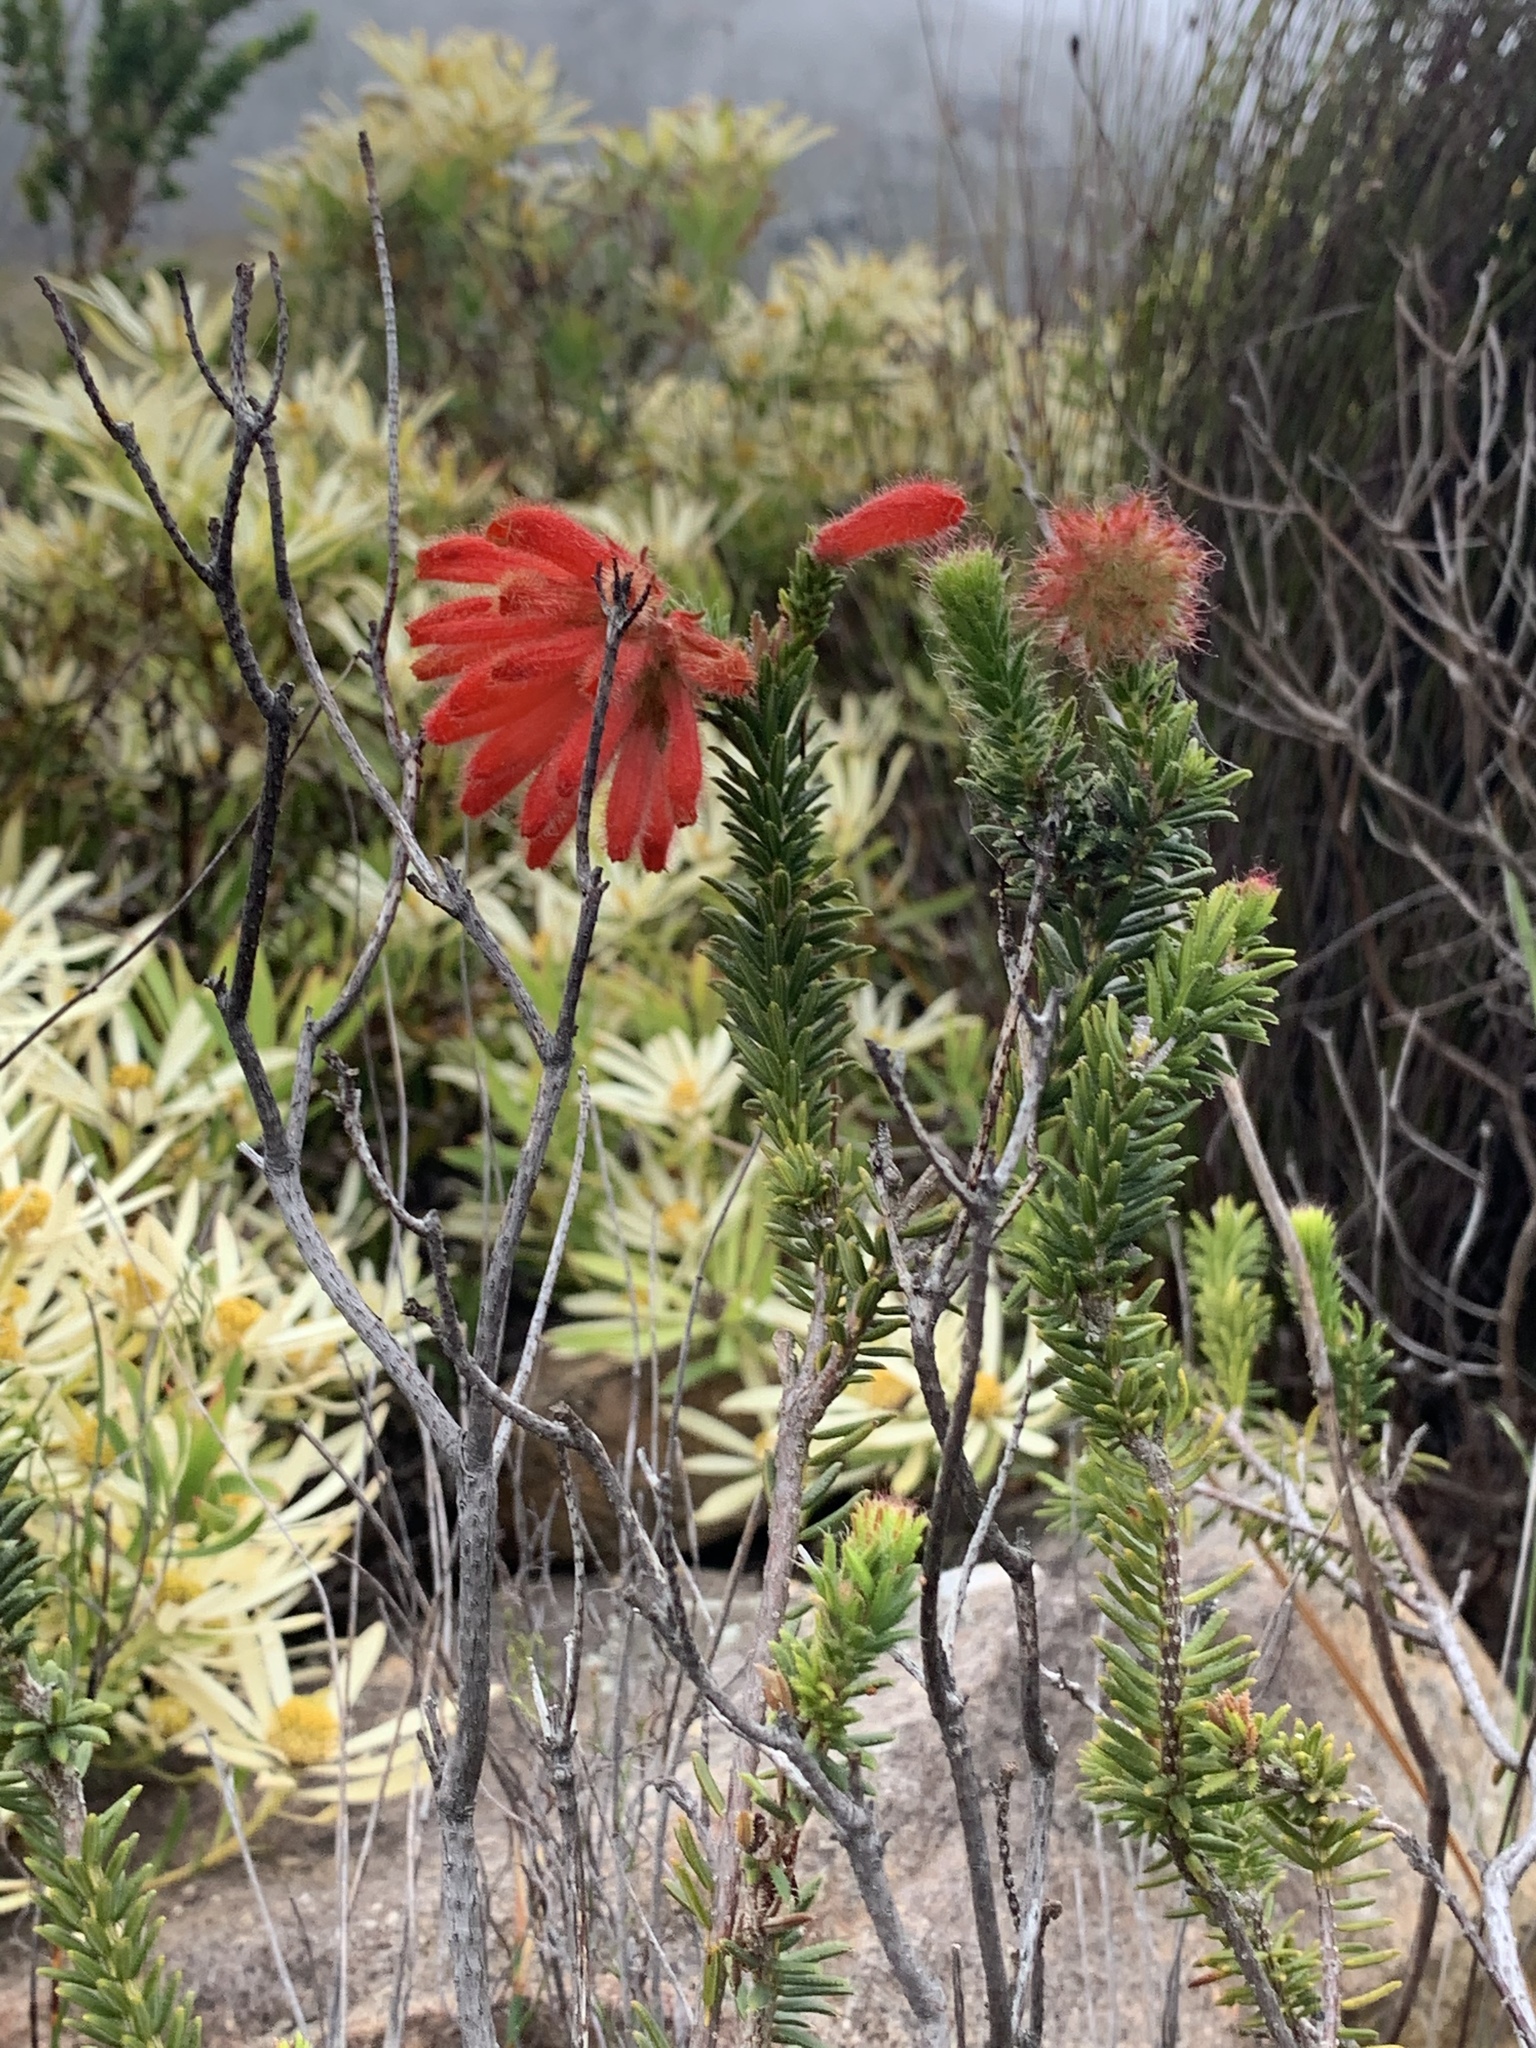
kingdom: Plantae
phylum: Tracheophyta
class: Magnoliopsida
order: Ericales
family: Ericaceae
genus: Erica
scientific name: Erica cerinthoides
